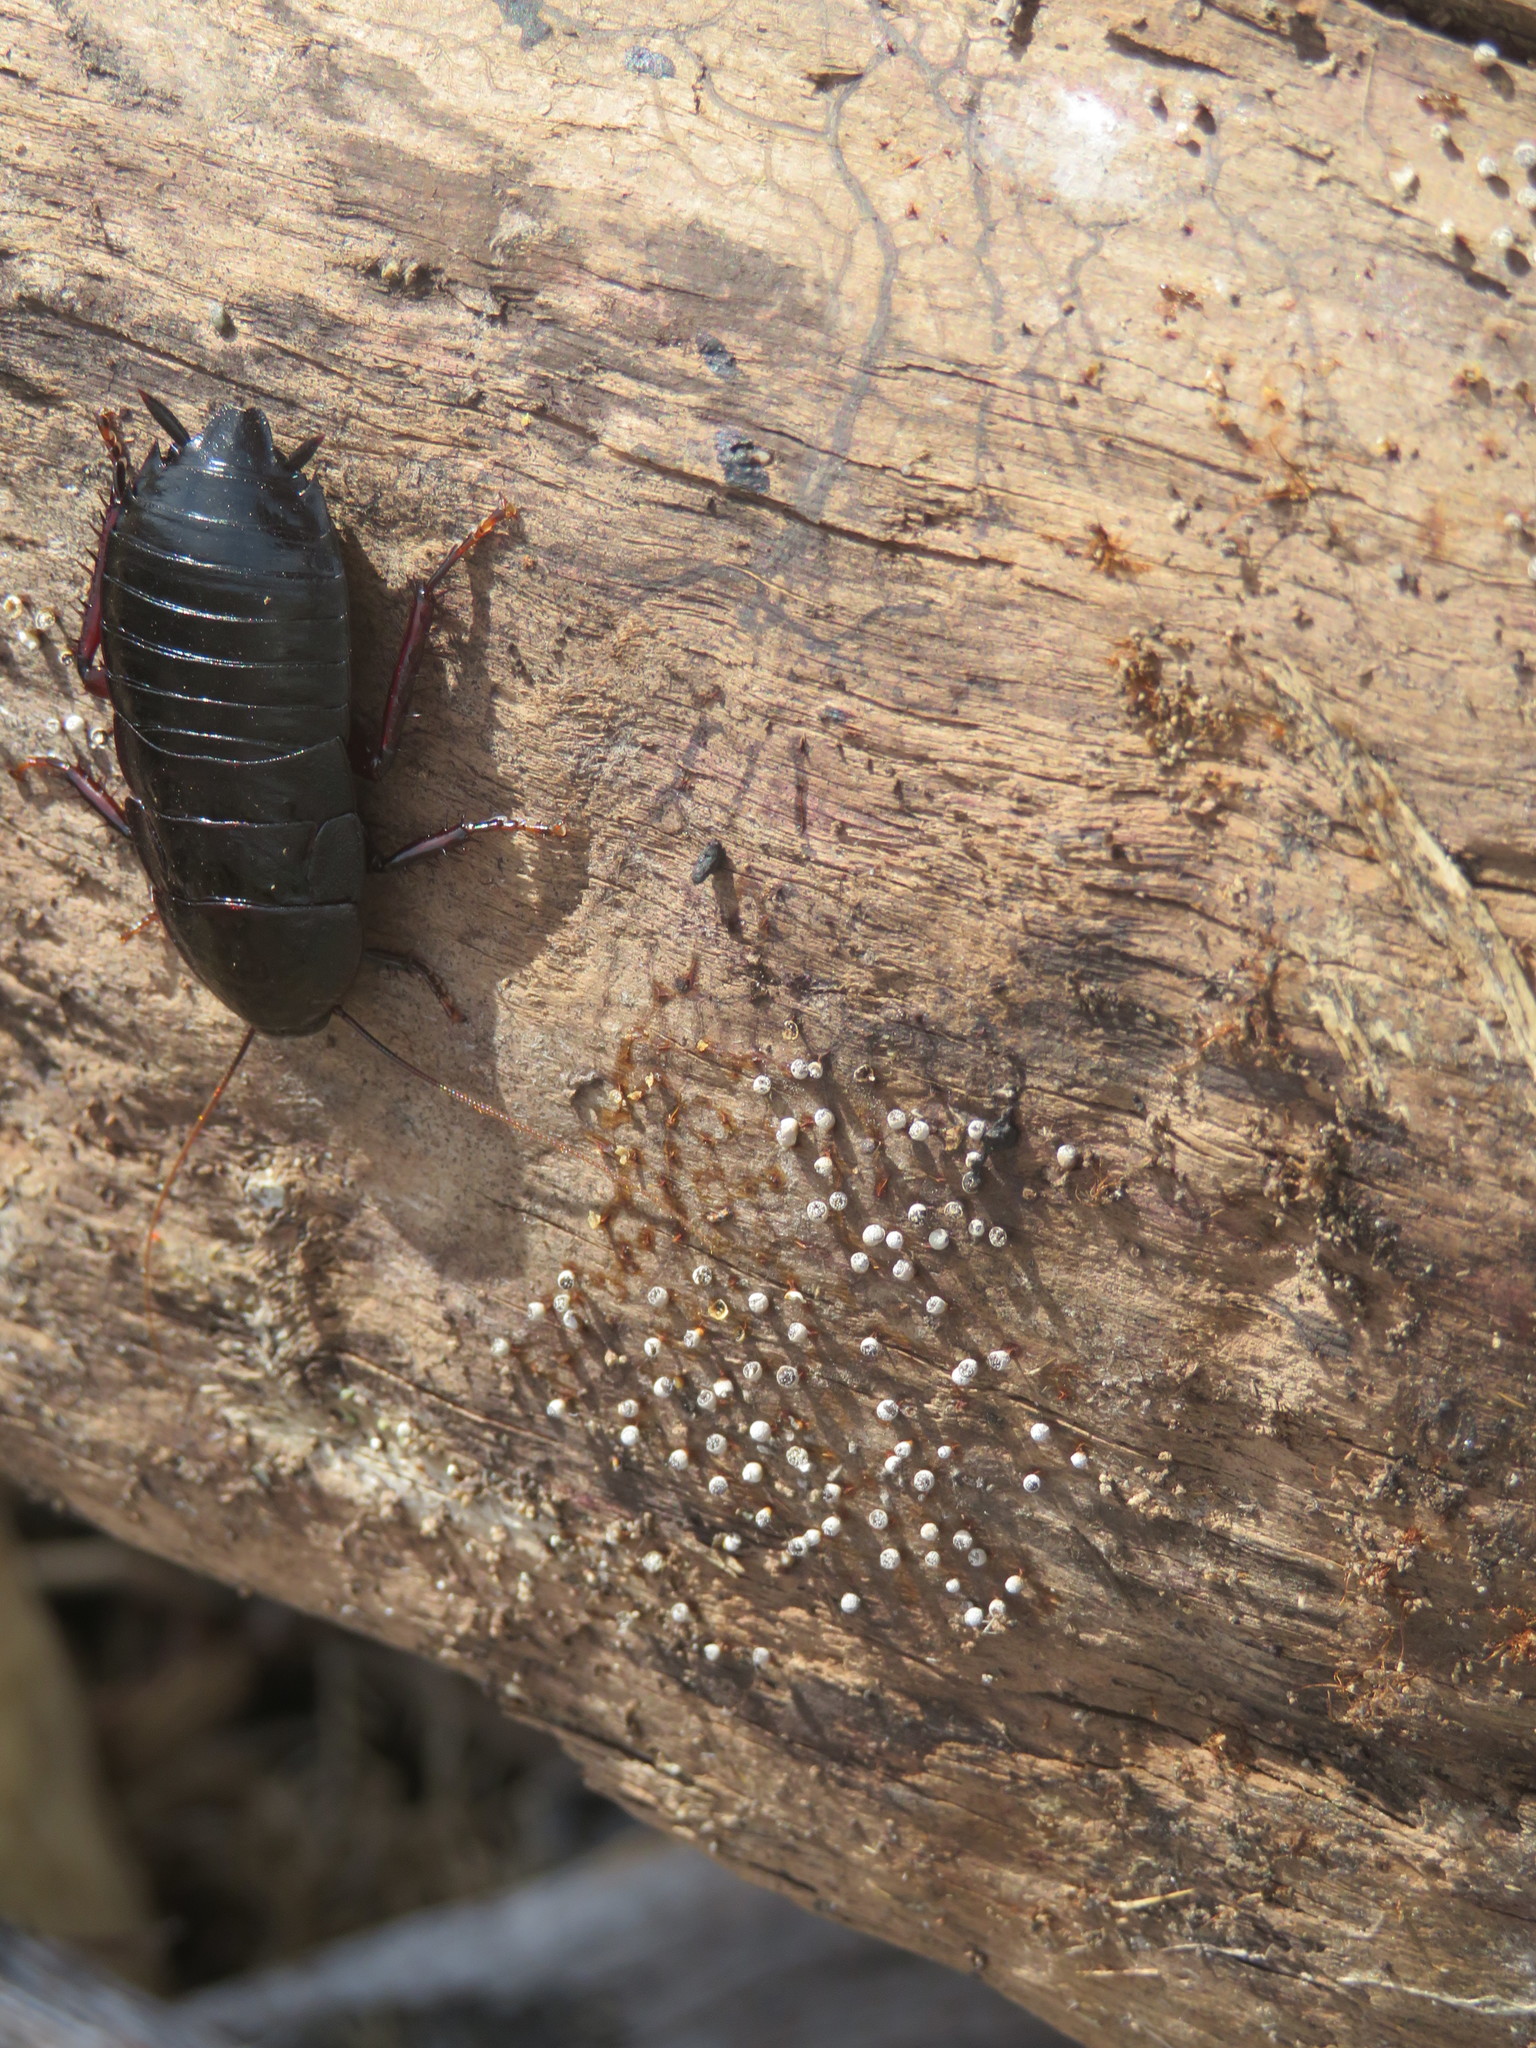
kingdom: Animalia
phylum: Arthropoda
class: Insecta
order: Blattodea
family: Blattidae
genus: Maoriblatta
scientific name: Maoriblatta novaeseelandiae
